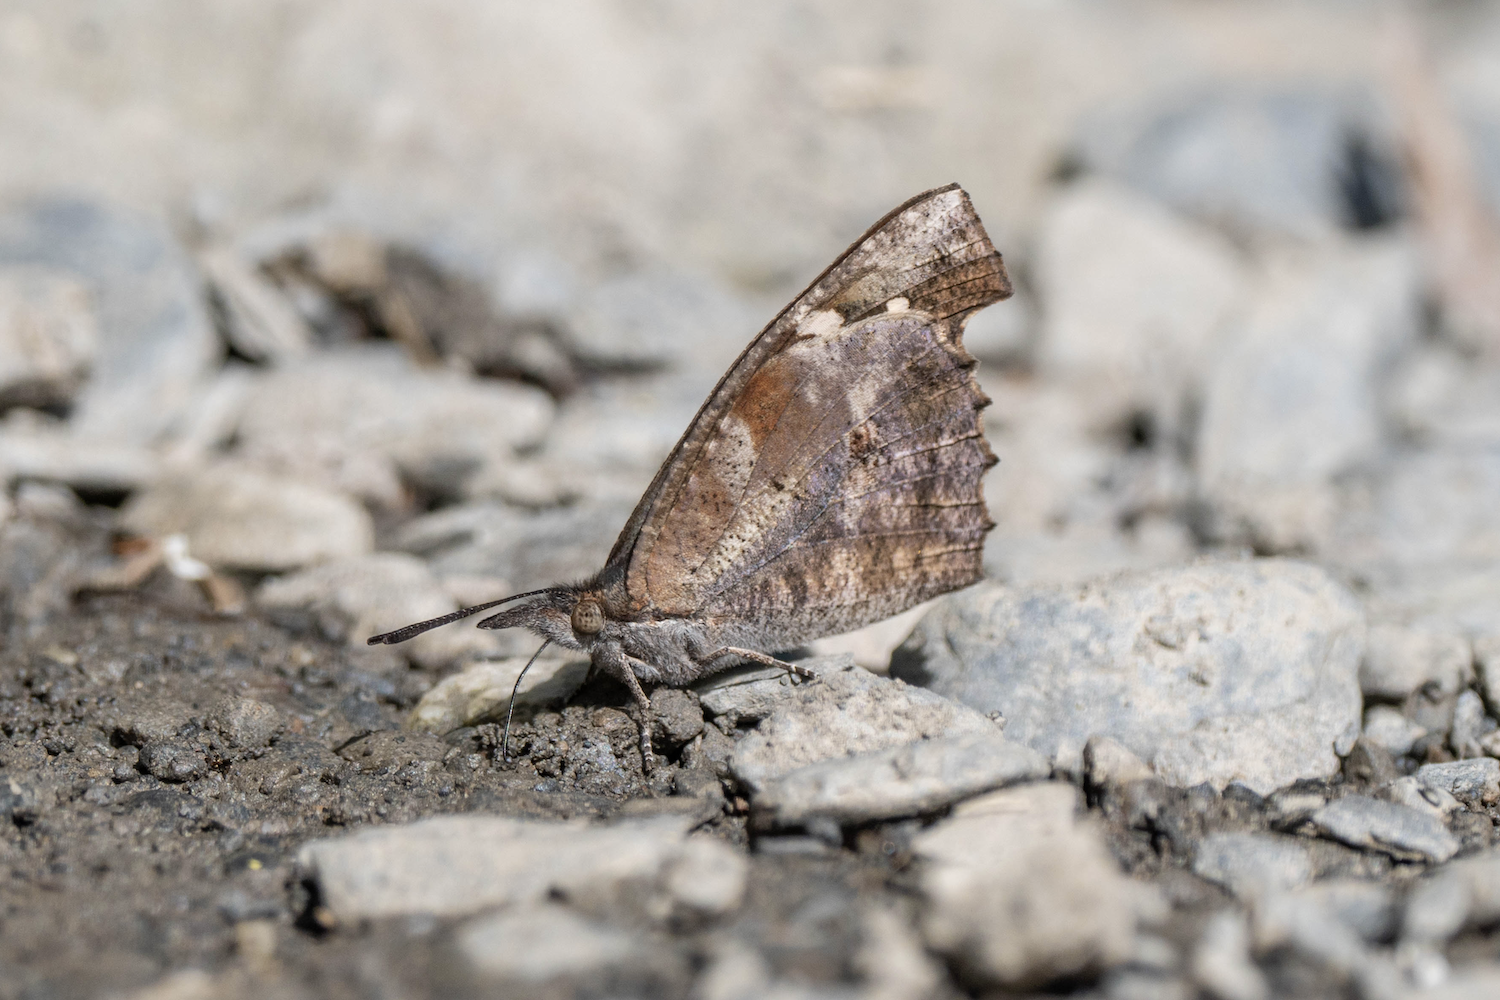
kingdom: Animalia
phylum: Arthropoda
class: Insecta
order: Lepidoptera
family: Nymphalidae
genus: Libythea
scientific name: Libythea lepita
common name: Common beak
